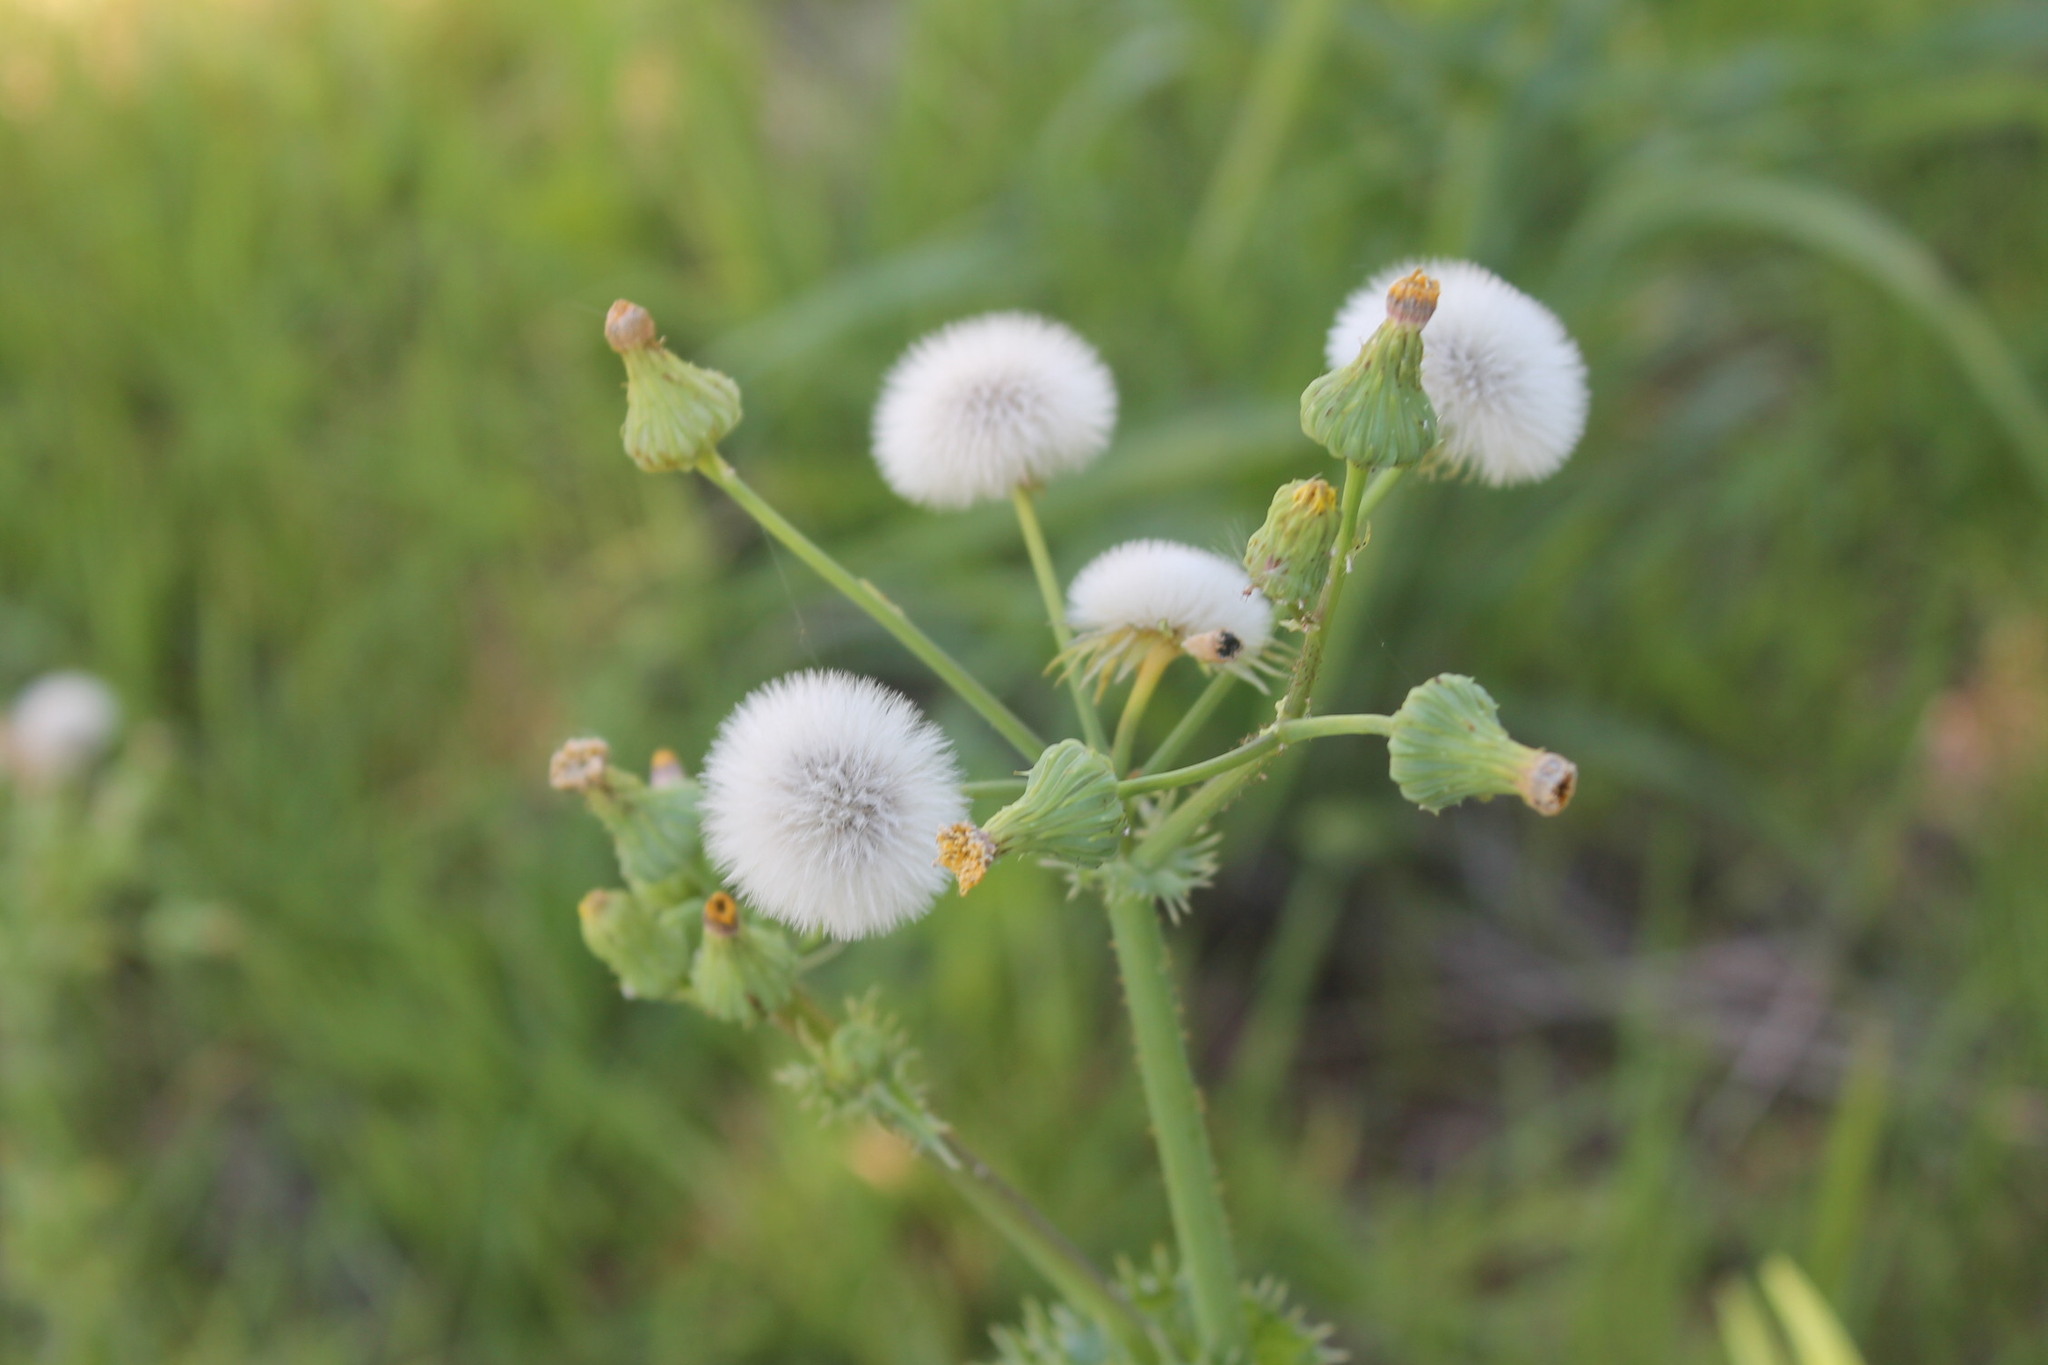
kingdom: Plantae
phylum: Tracheophyta
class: Magnoliopsida
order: Asterales
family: Asteraceae
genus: Sonchus
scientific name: Sonchus asper
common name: Prickly sow-thistle
